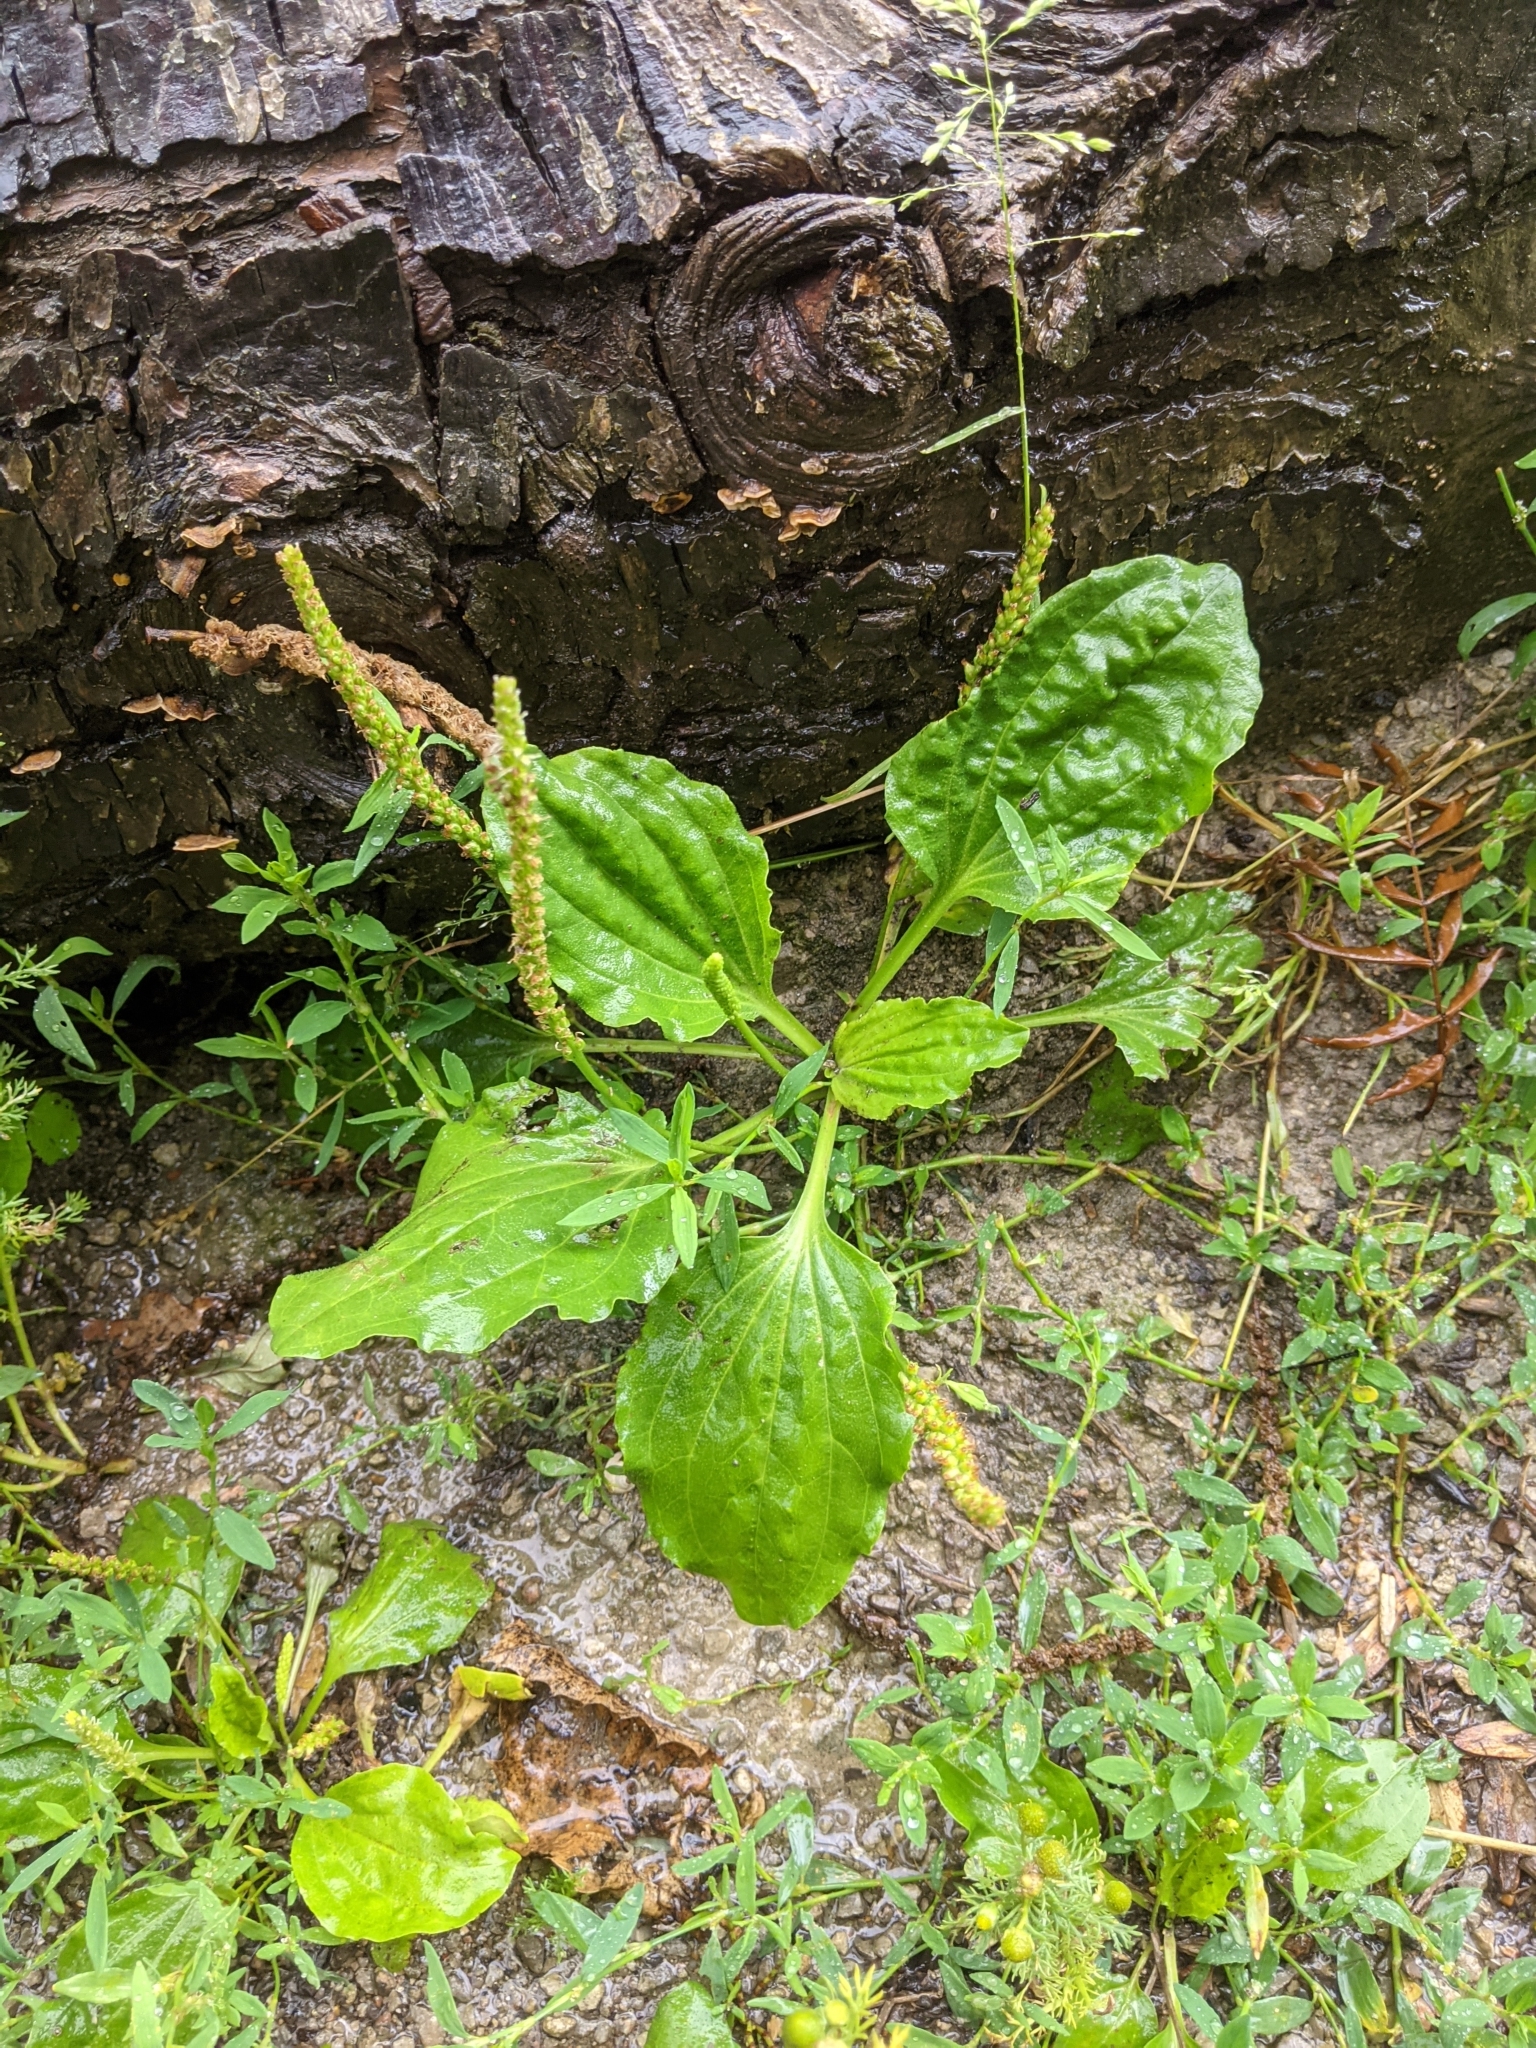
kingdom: Plantae
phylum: Tracheophyta
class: Magnoliopsida
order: Lamiales
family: Plantaginaceae
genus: Plantago
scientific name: Plantago major
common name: Common plantain
